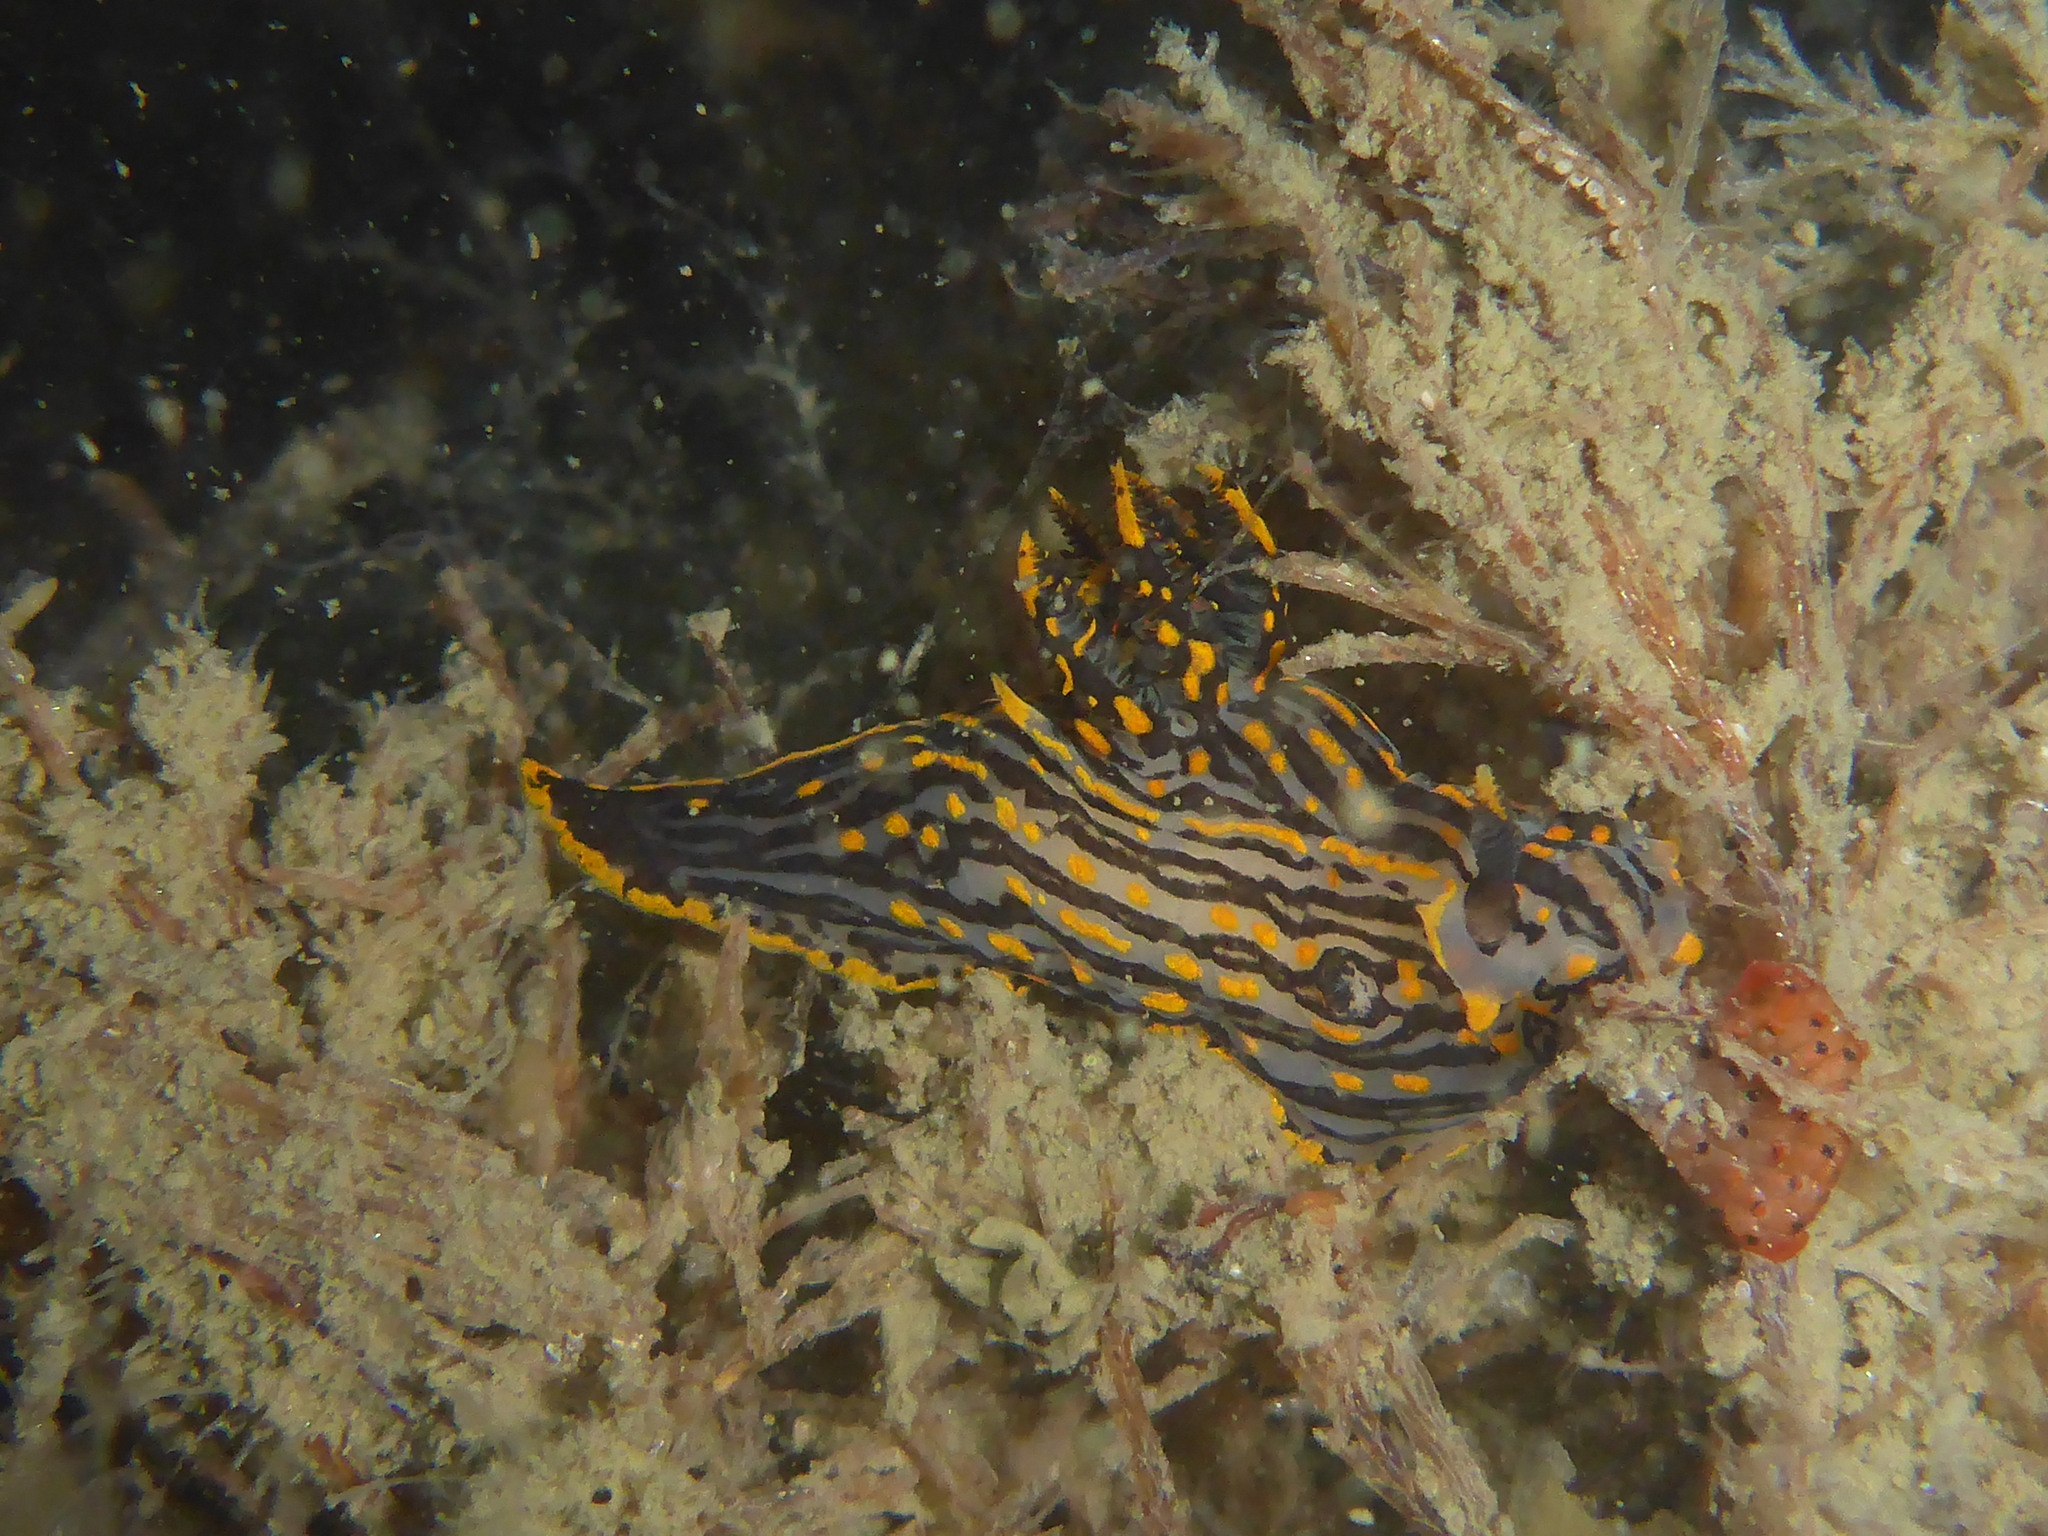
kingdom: Animalia
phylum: Mollusca
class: Gastropoda
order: Nudibranchia
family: Polyceridae
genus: Polycera
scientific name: Polycera atra
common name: Orange-spike polycera
